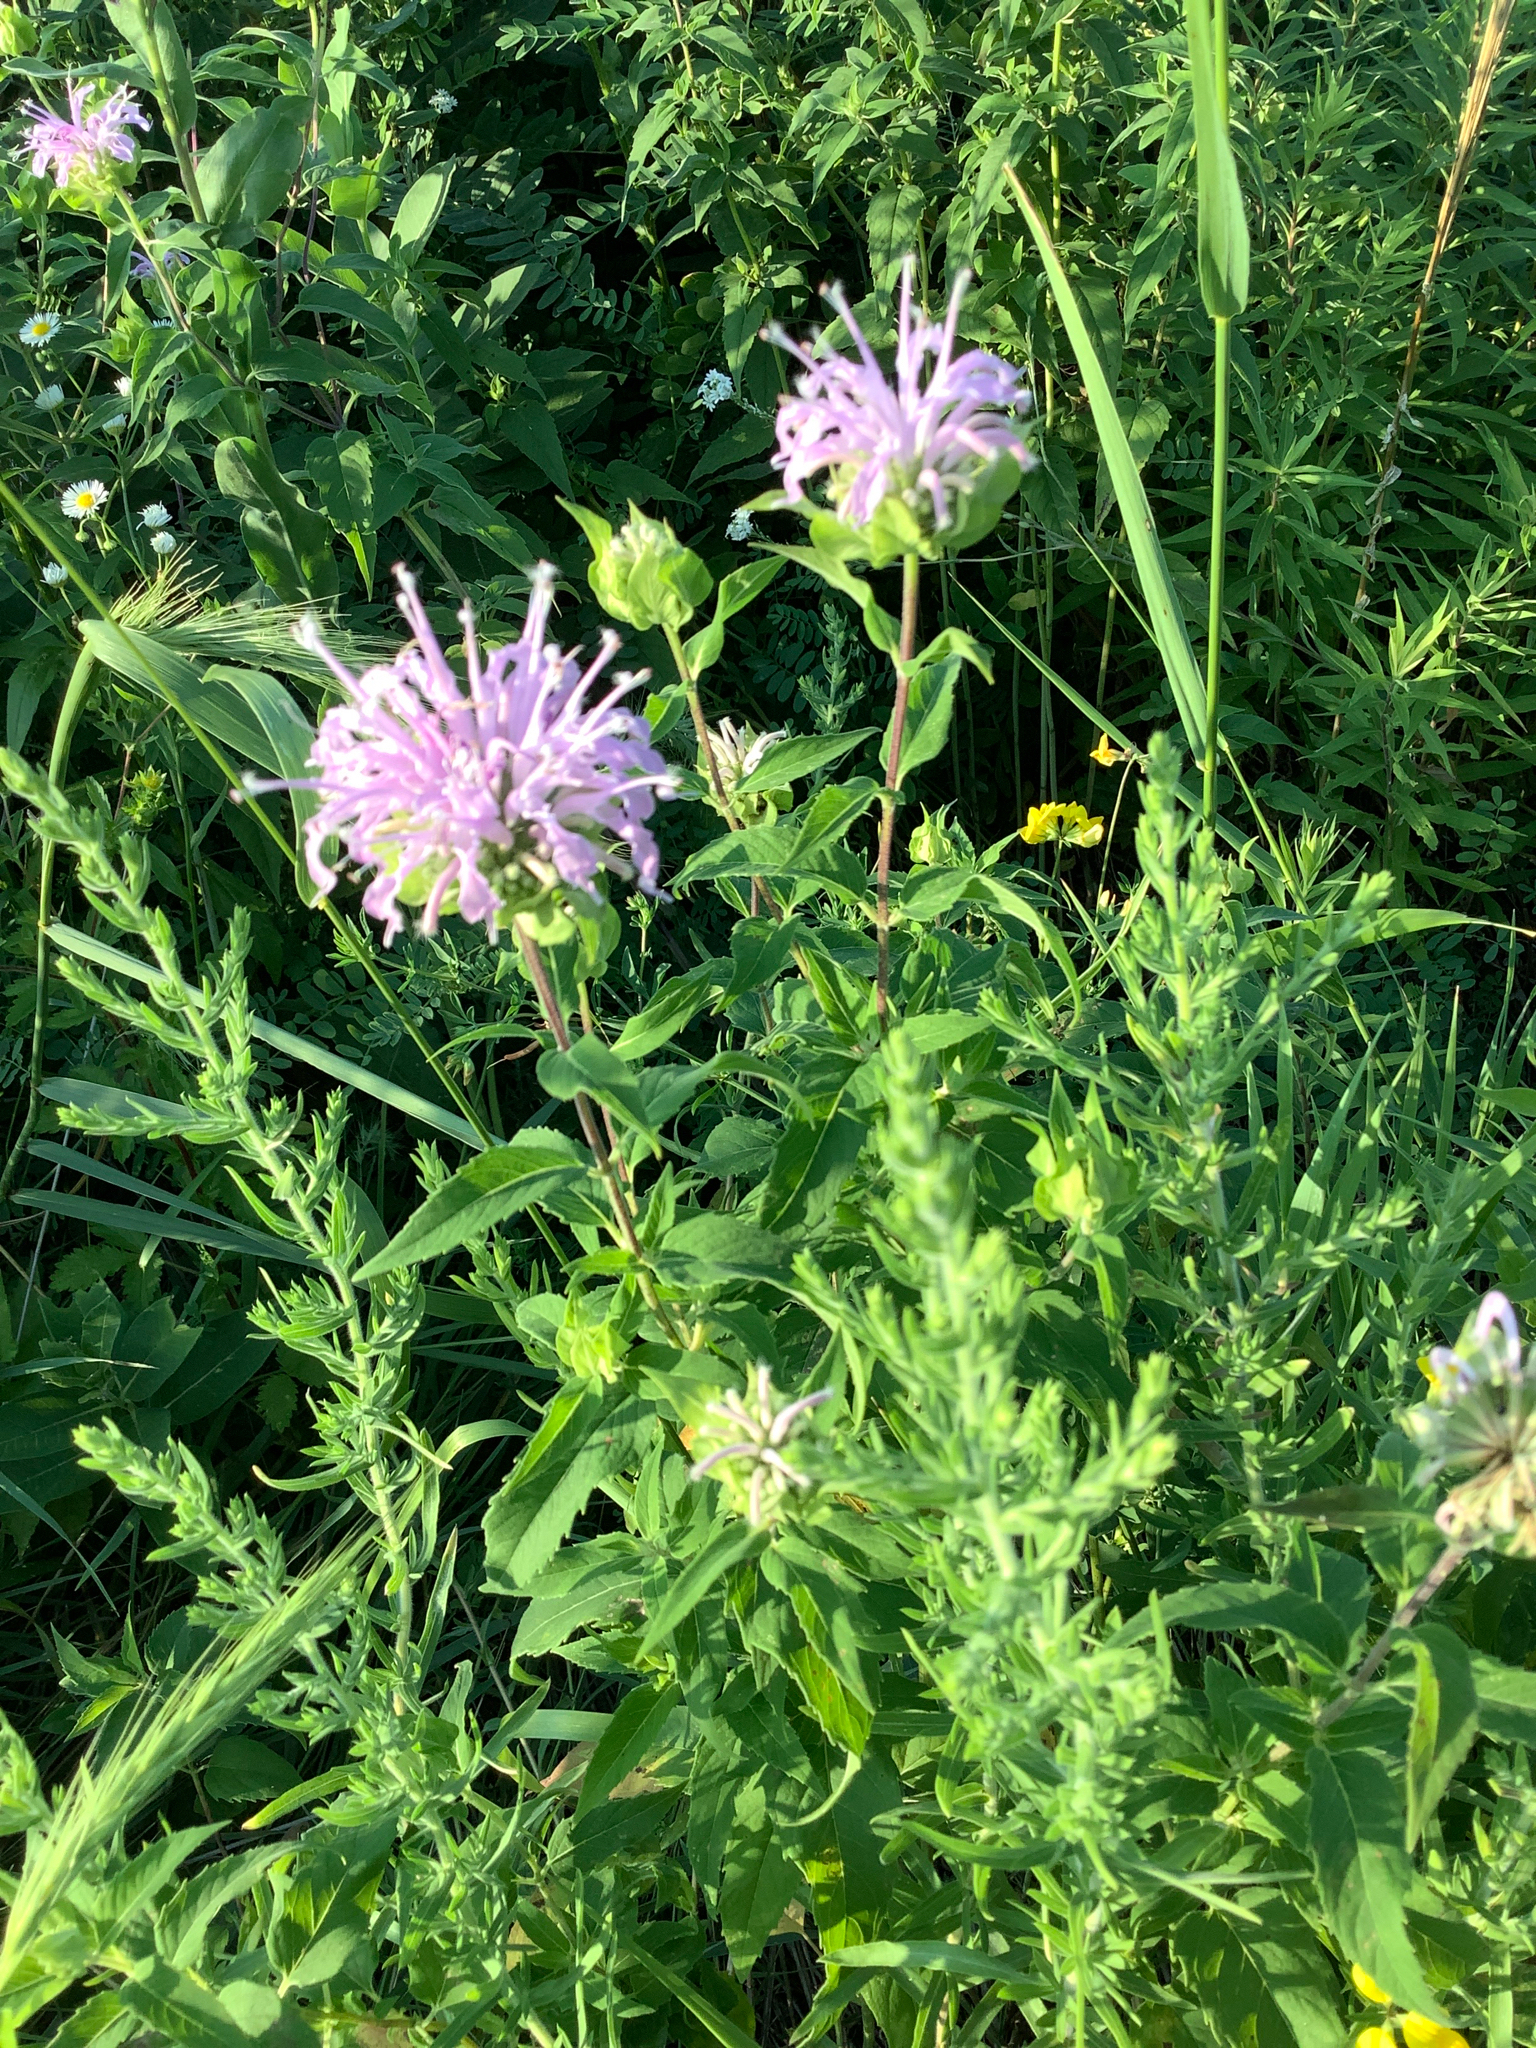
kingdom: Plantae
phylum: Tracheophyta
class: Magnoliopsida
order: Lamiales
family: Lamiaceae
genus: Monarda
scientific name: Monarda fistulosa
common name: Purple beebalm
